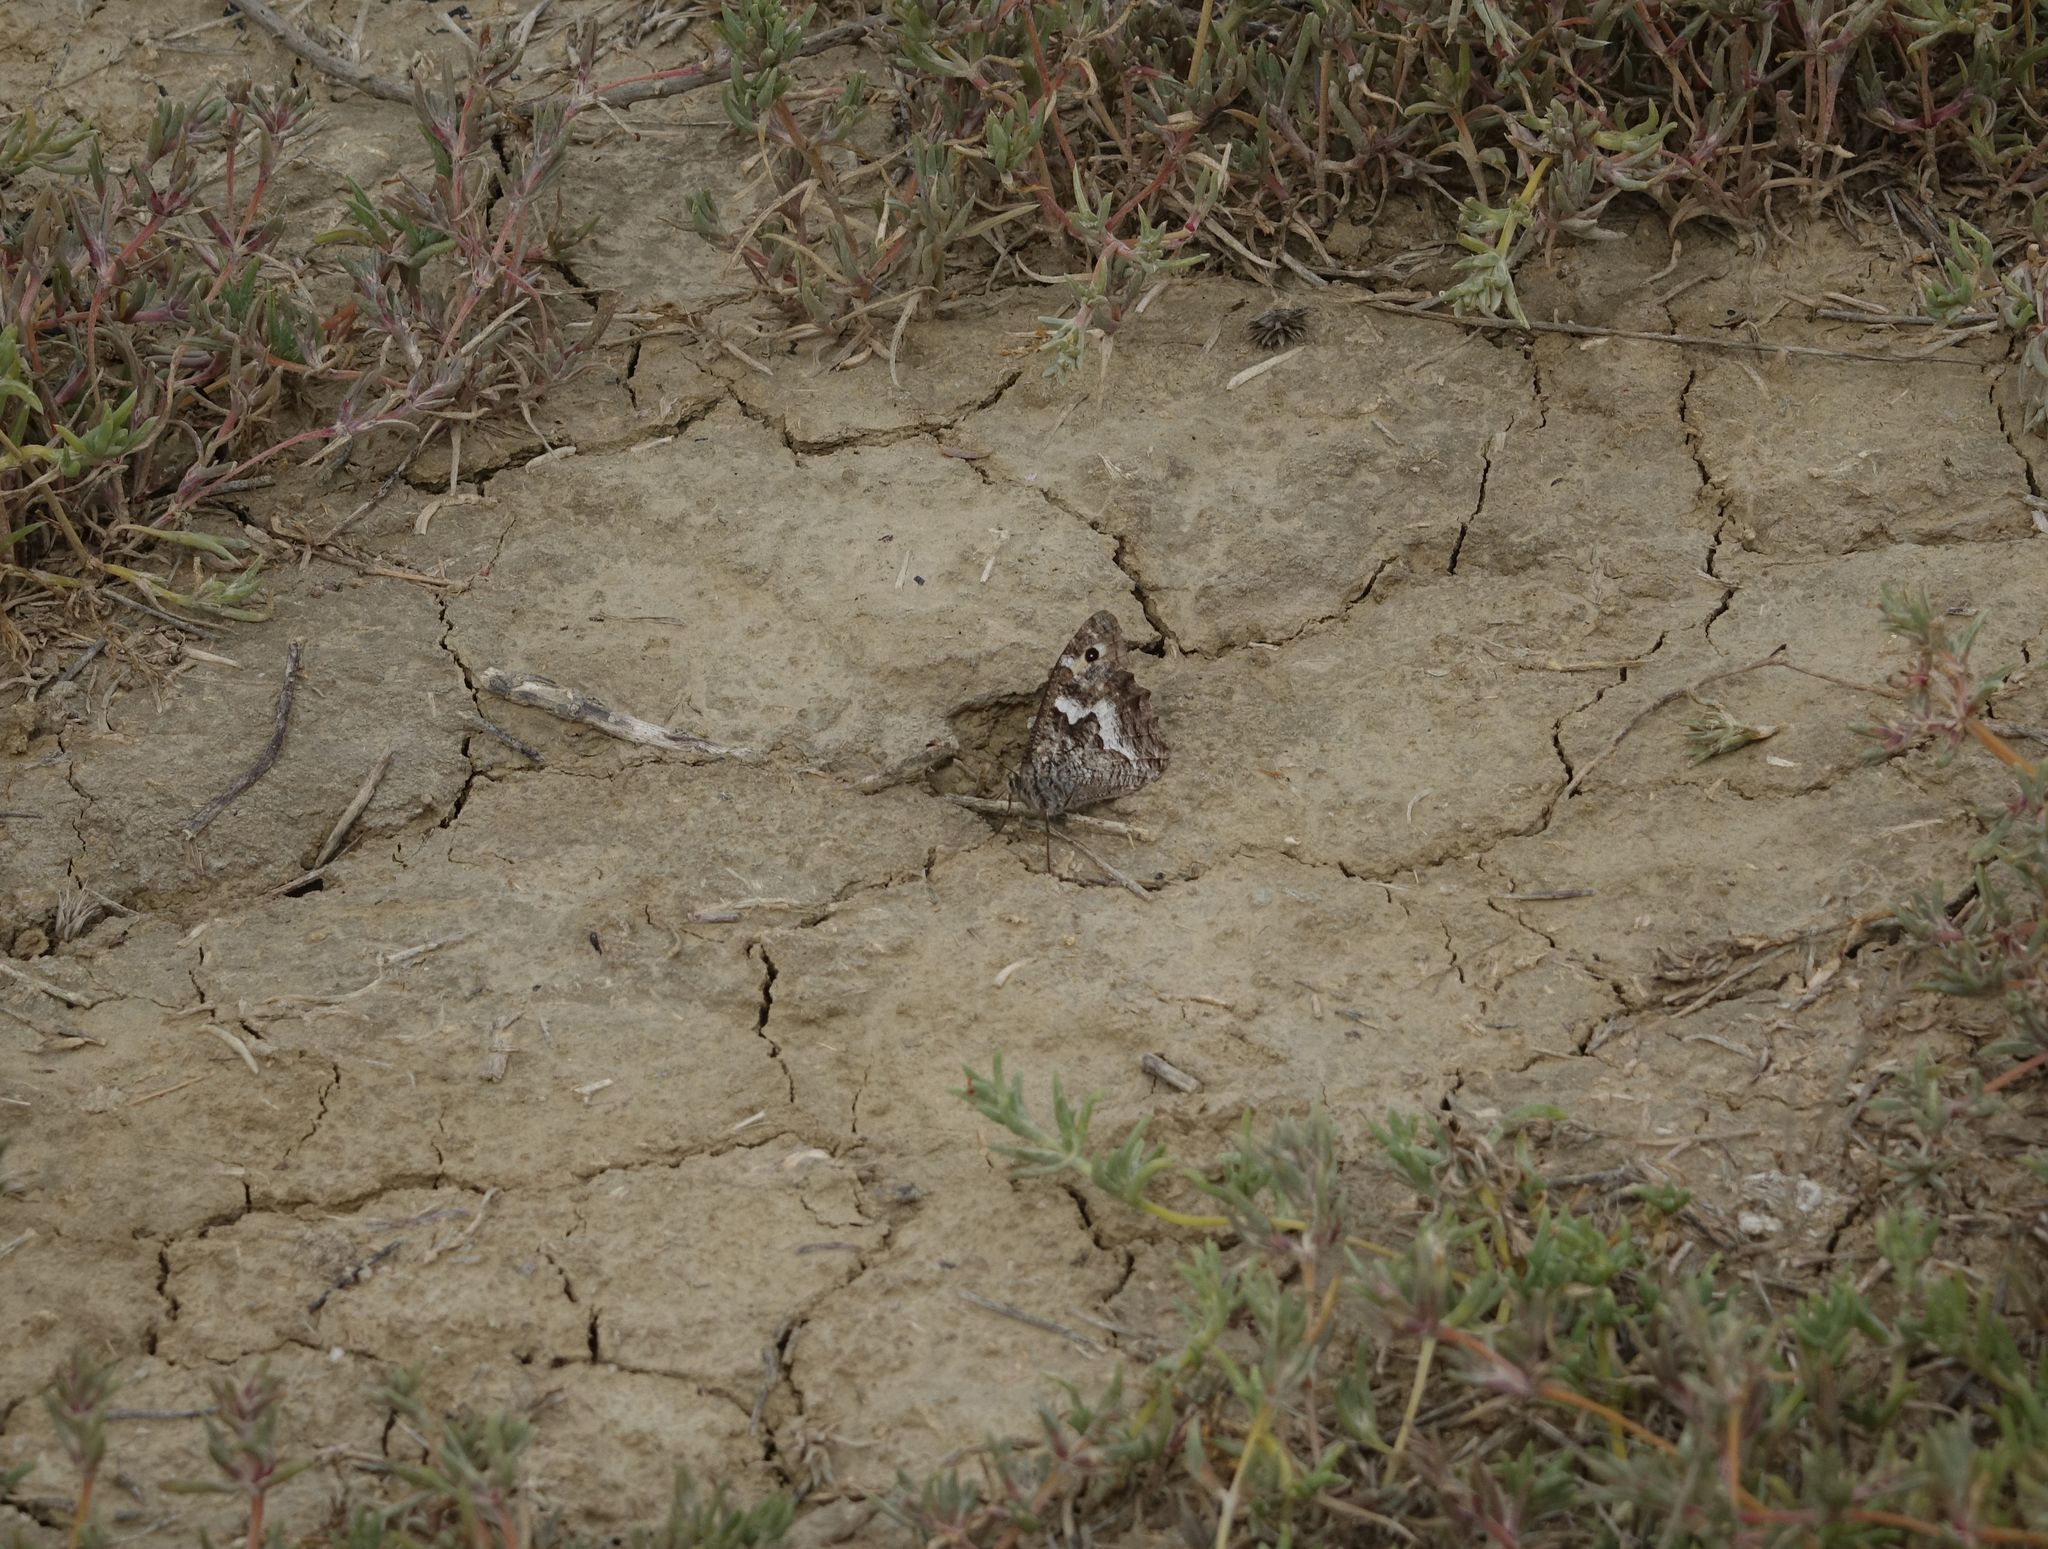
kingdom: Animalia
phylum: Arthropoda
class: Insecta
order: Lepidoptera
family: Nymphalidae
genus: Hipparchia
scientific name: Hipparchia pellucida
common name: Lesbos grayling
